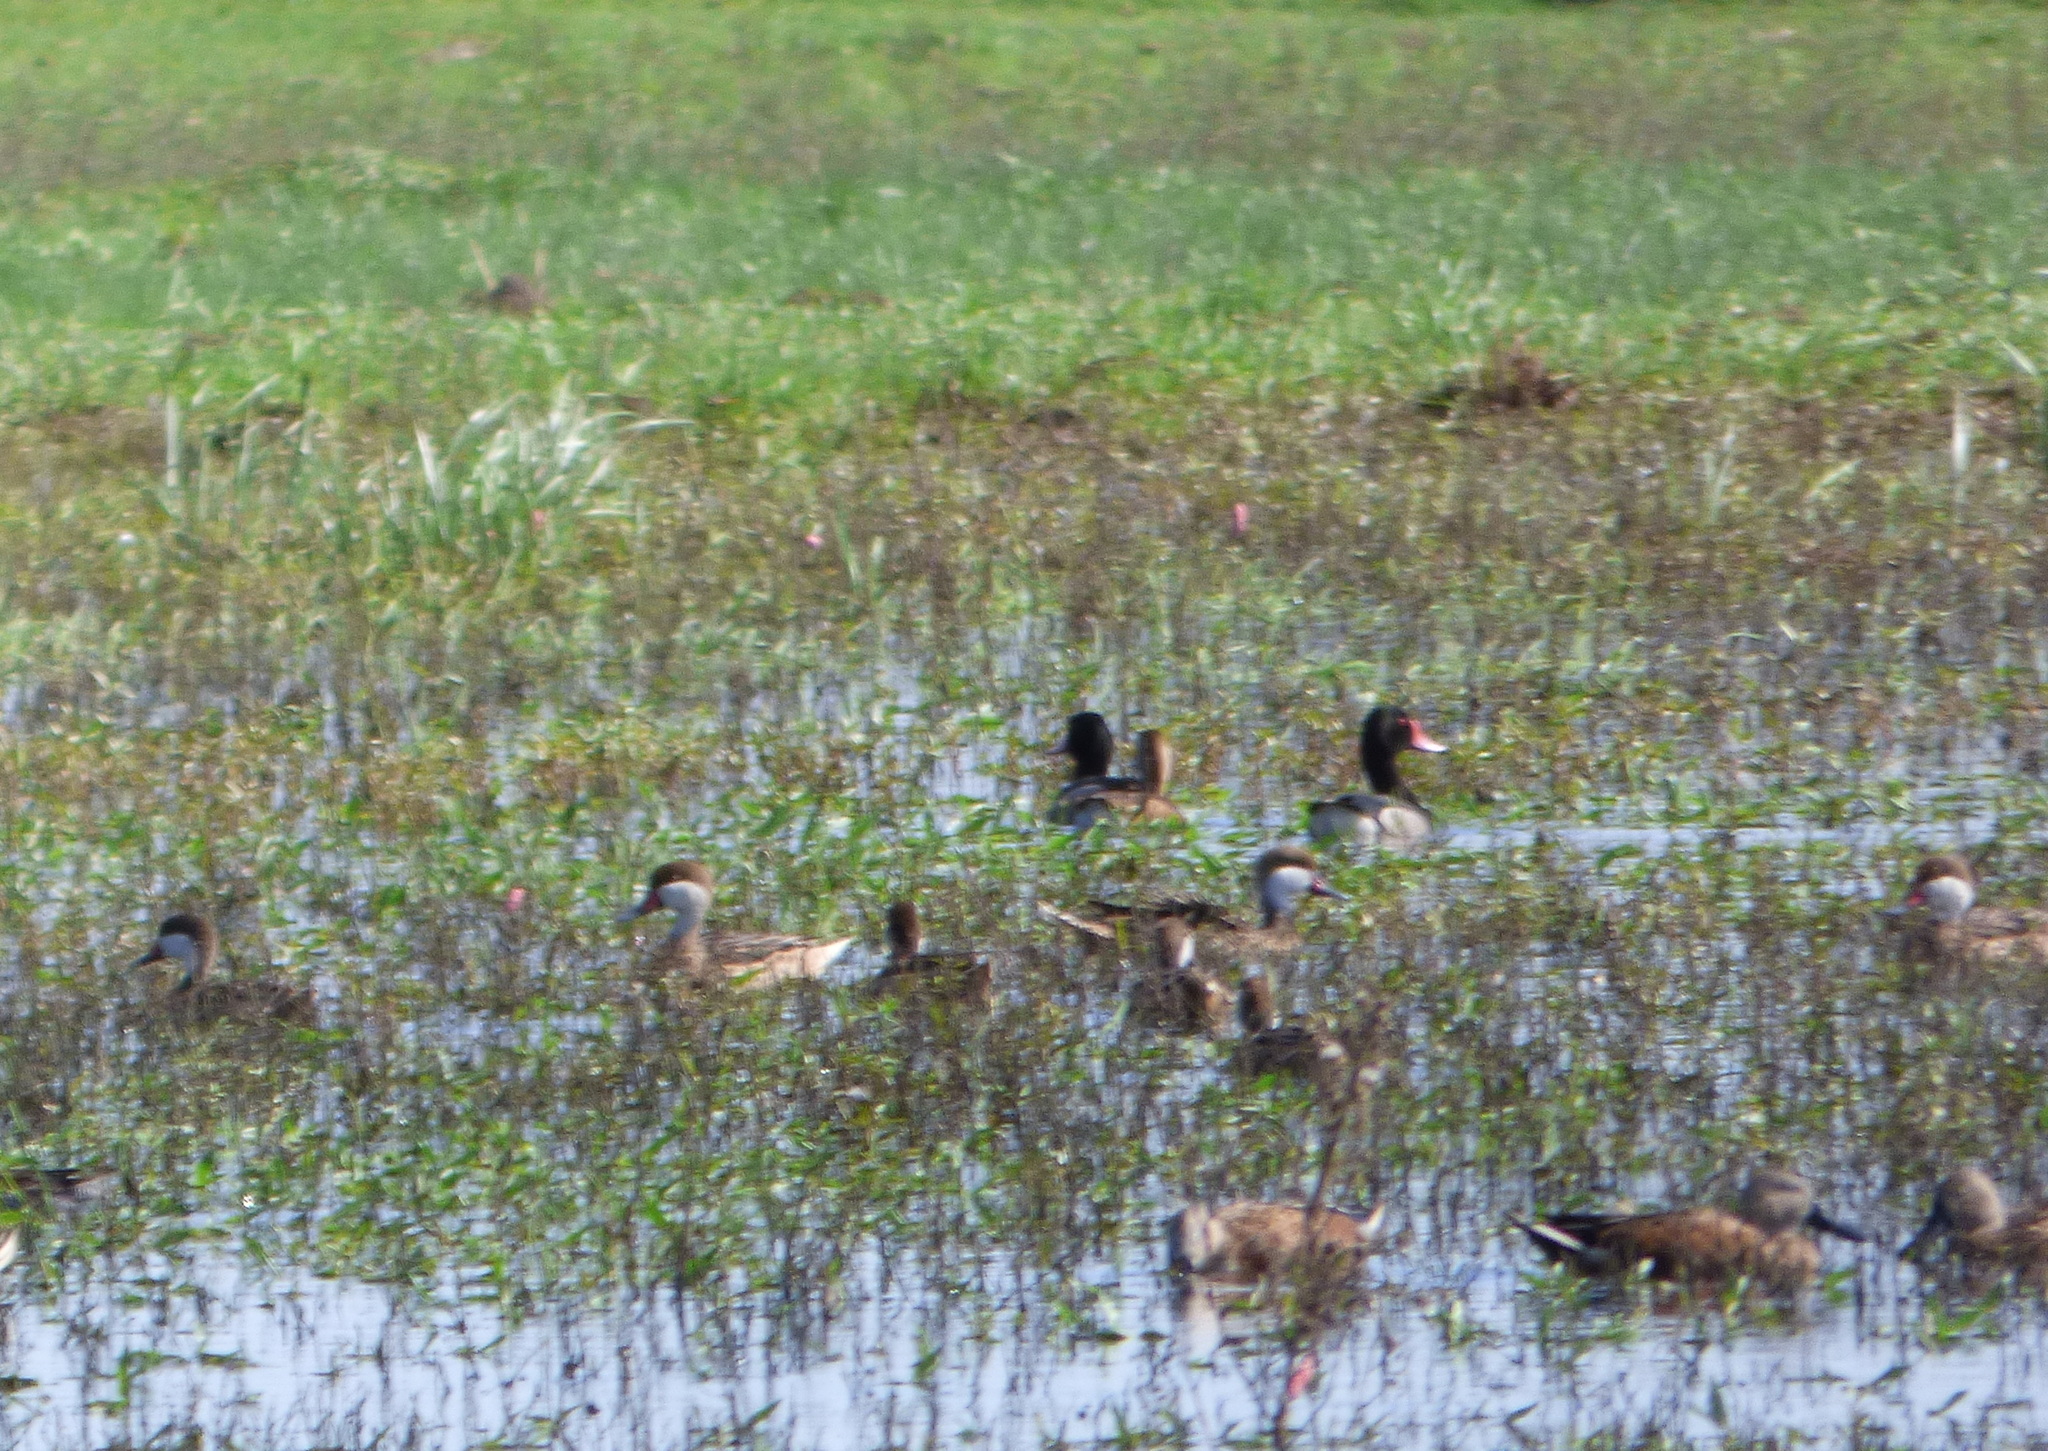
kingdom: Animalia
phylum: Chordata
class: Aves
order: Anseriformes
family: Anatidae
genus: Anas
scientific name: Anas bahamensis
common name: White-cheeked pintail
